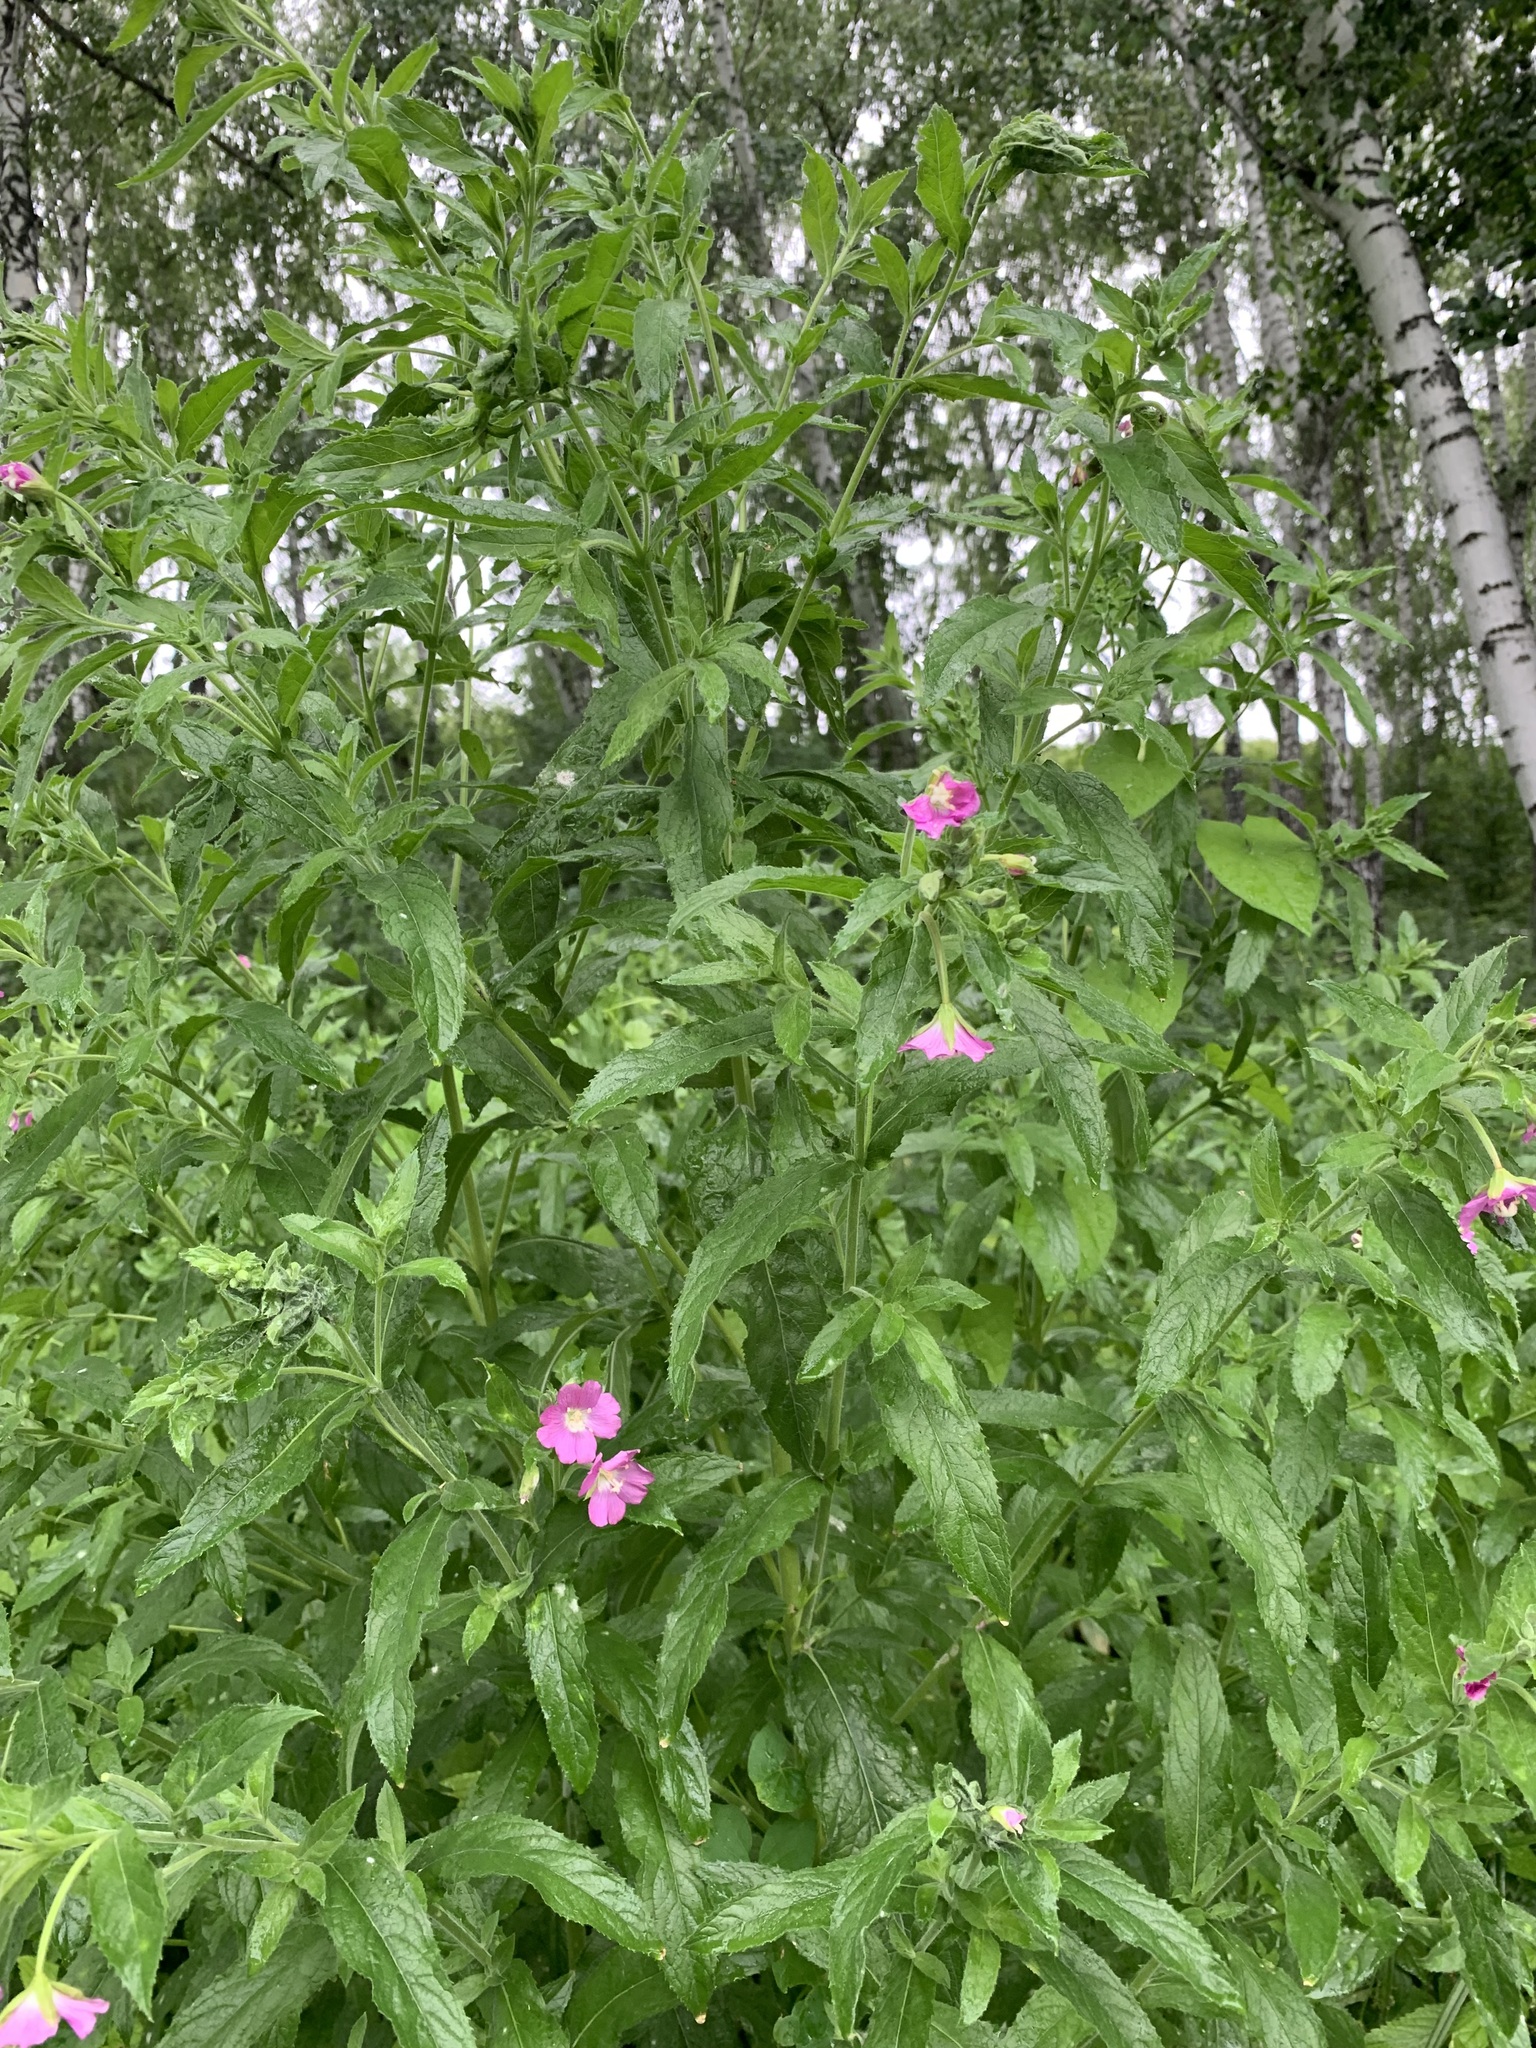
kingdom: Plantae
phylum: Tracheophyta
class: Magnoliopsida
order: Myrtales
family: Onagraceae
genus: Epilobium
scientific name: Epilobium hirsutum
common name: Great willowherb
